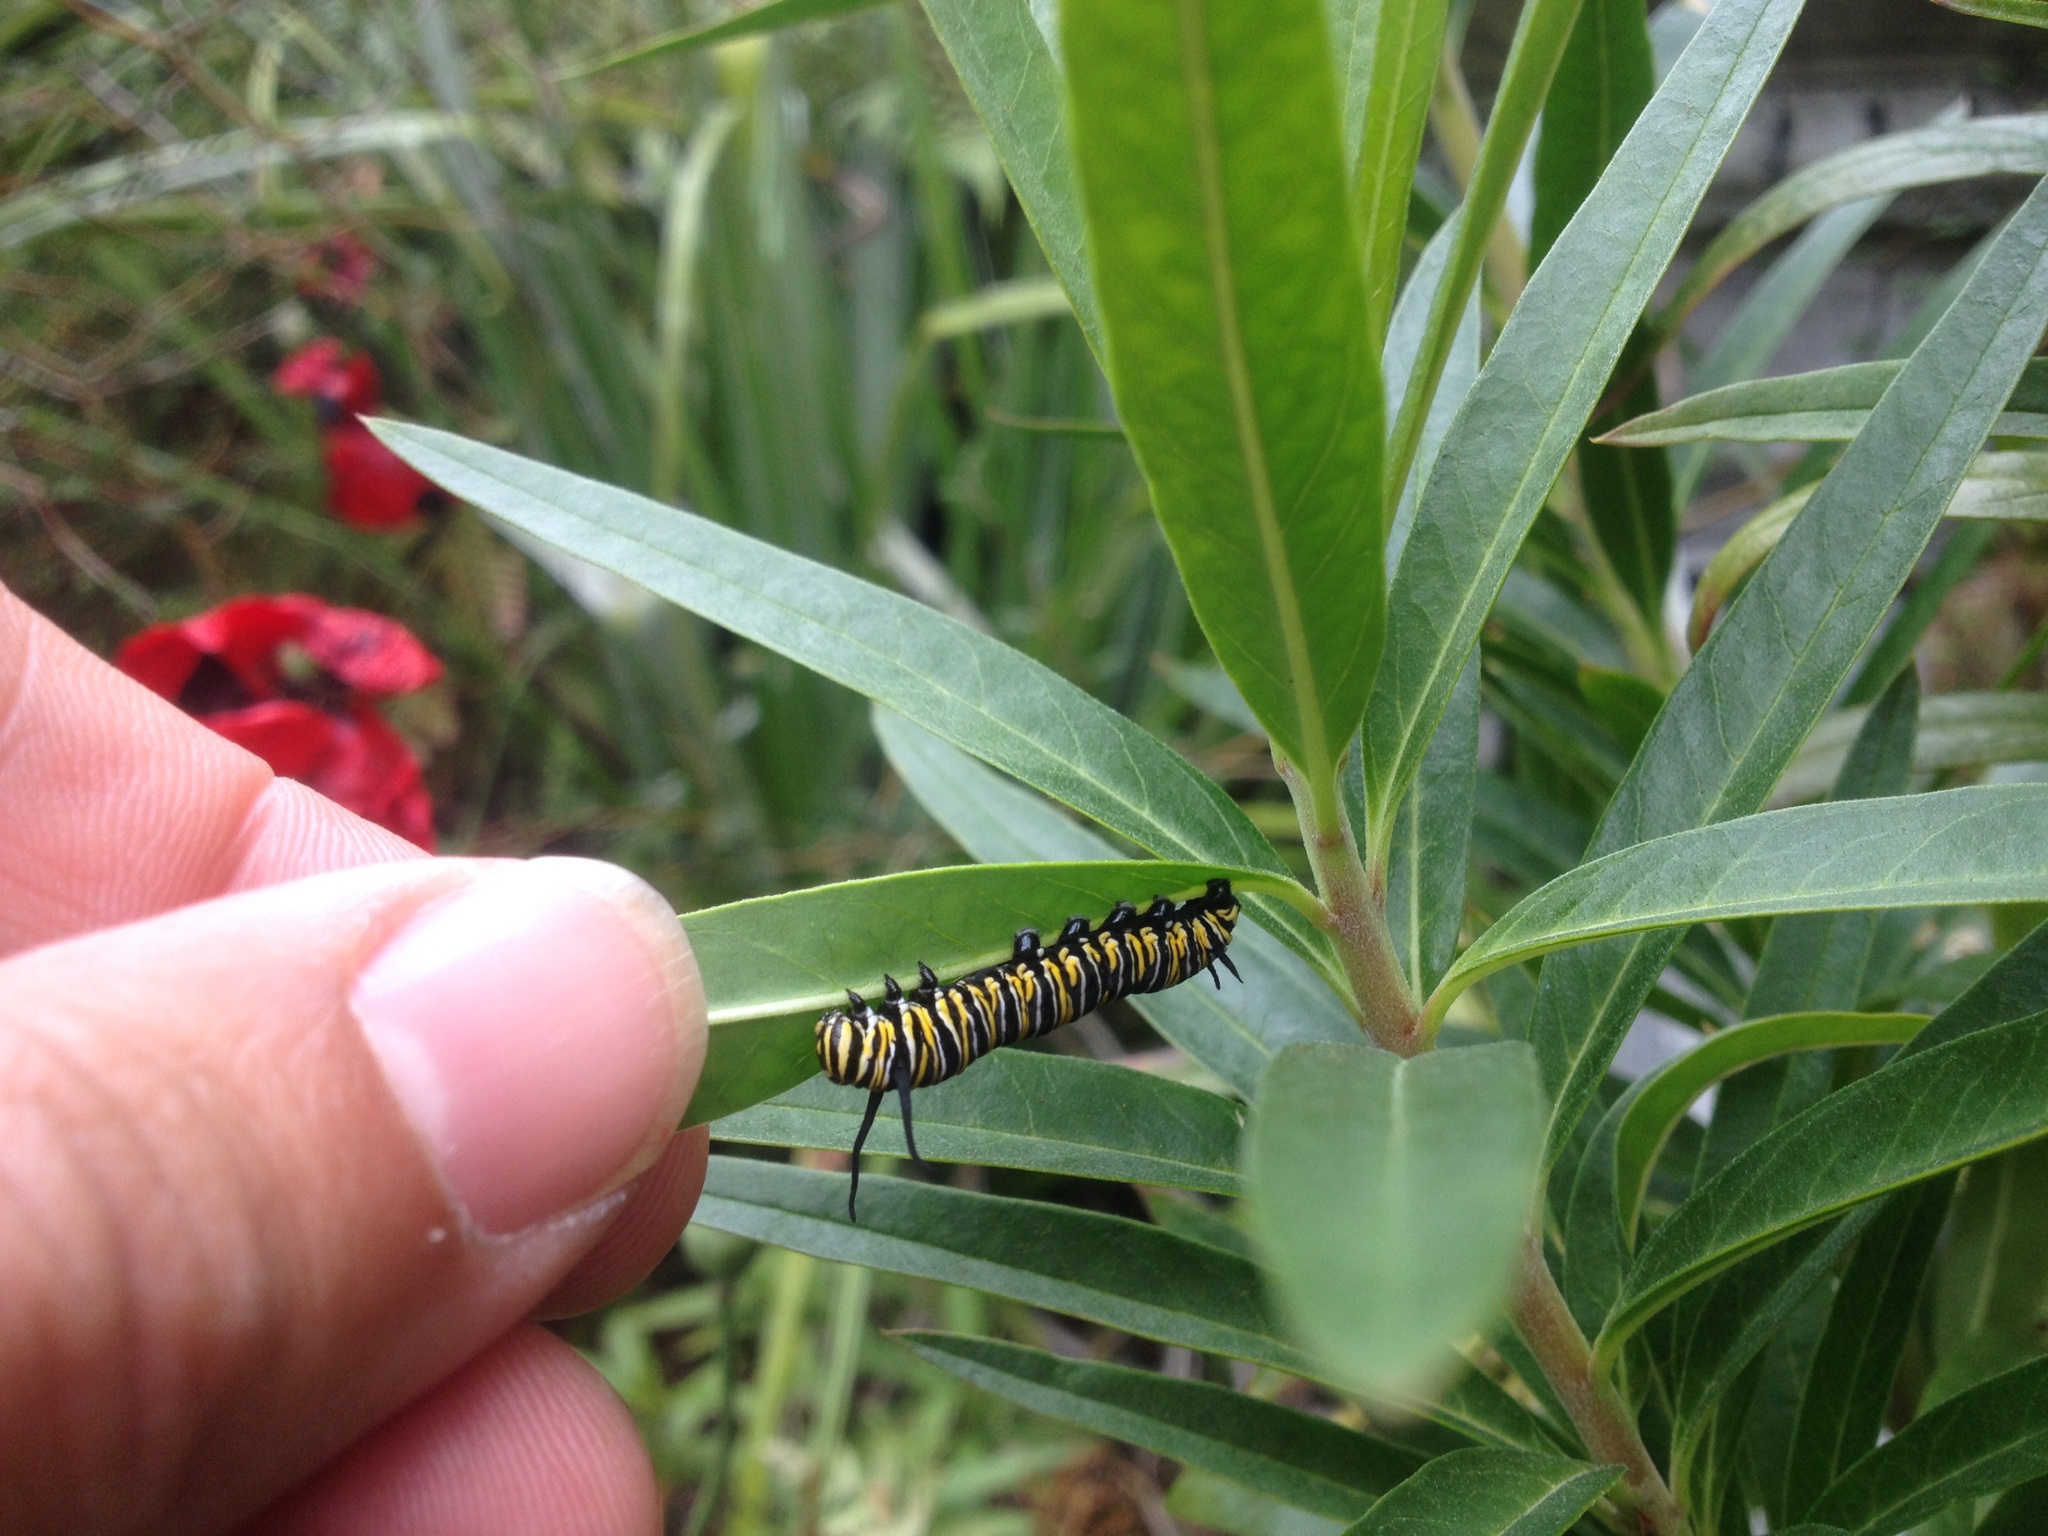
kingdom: Animalia
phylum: Arthropoda
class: Insecta
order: Lepidoptera
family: Nymphalidae
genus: Danaus
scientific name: Danaus plexippus
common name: Monarch
